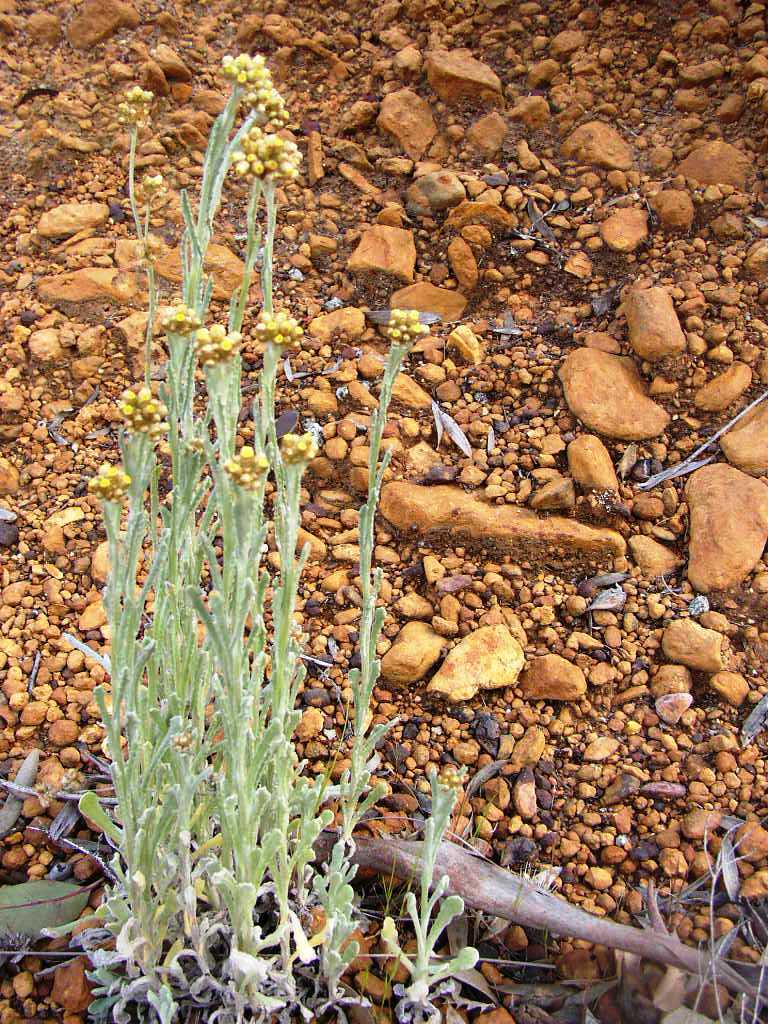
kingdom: Plantae
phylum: Tracheophyta
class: Magnoliopsida
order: Asterales
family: Asteraceae
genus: Helichrysum
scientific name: Helichrysum luteoalbum
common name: Daisy
